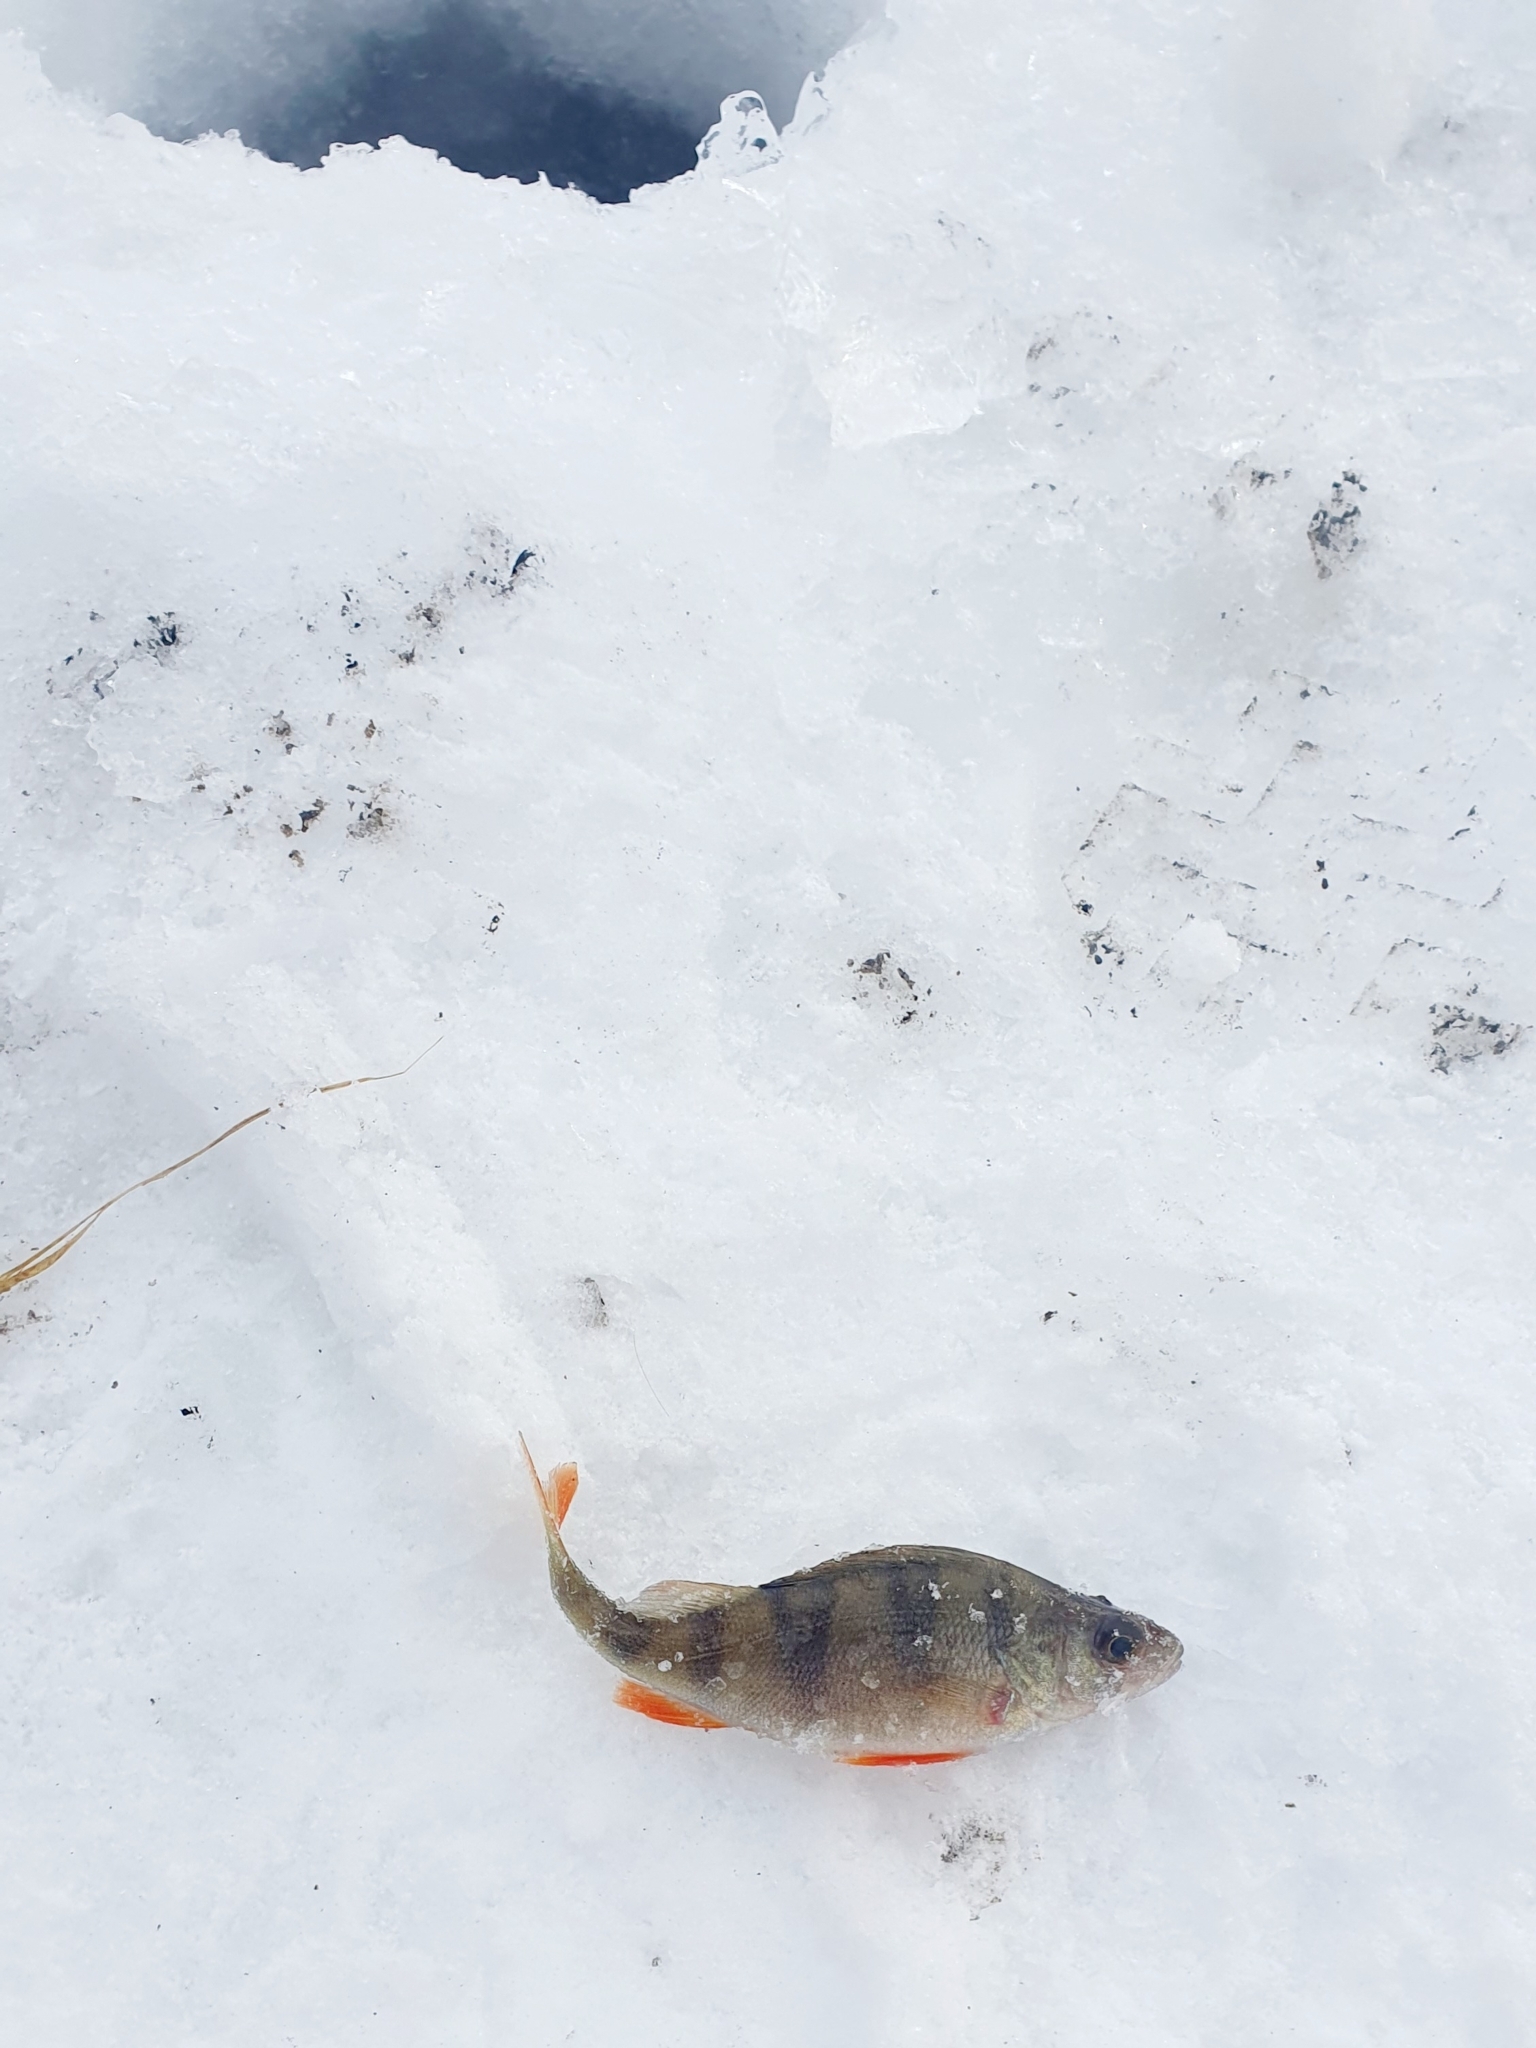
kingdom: Animalia
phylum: Chordata
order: Perciformes
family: Percidae
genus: Perca
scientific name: Perca fluviatilis
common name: Perch
